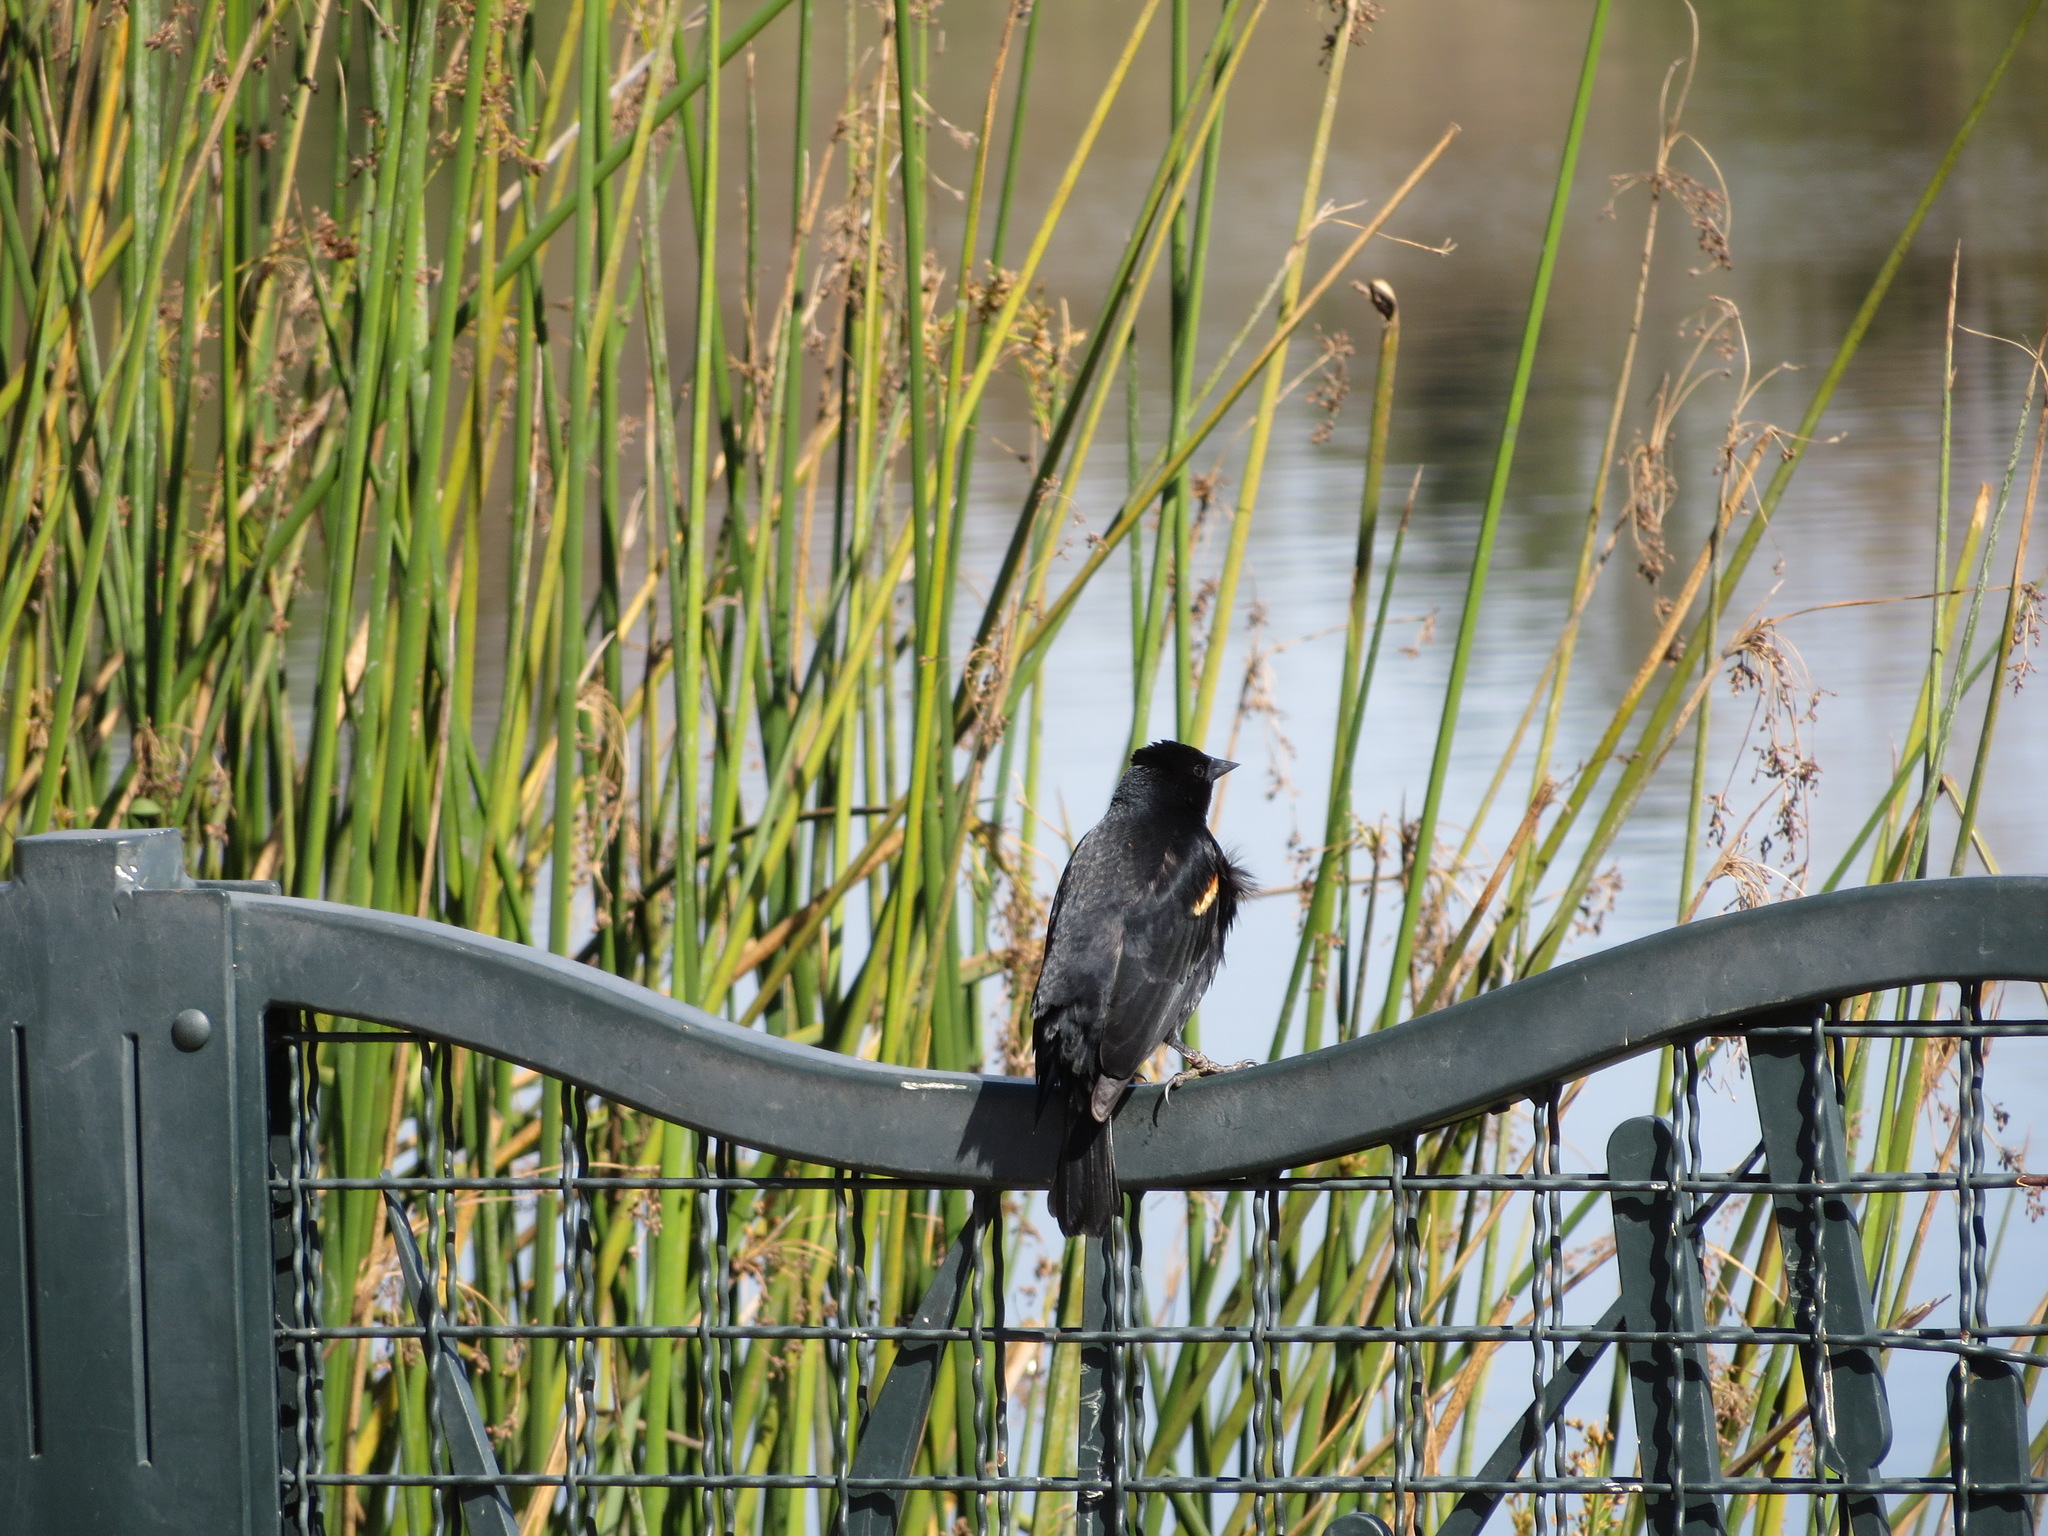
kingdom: Animalia
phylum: Chordata
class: Aves
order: Passeriformes
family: Icteridae
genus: Agelaius
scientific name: Agelaius phoeniceus
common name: Red-winged blackbird
